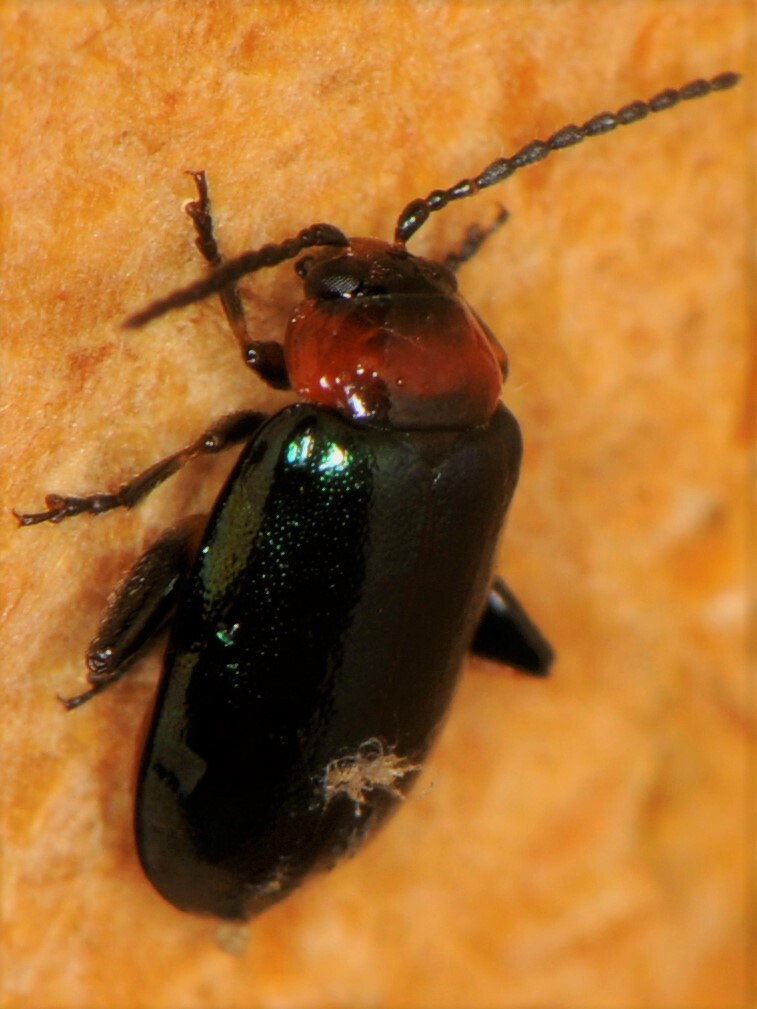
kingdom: Animalia
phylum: Arthropoda
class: Insecta
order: Coleoptera
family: Chrysomelidae
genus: Disonycha
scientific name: Disonycha politula
